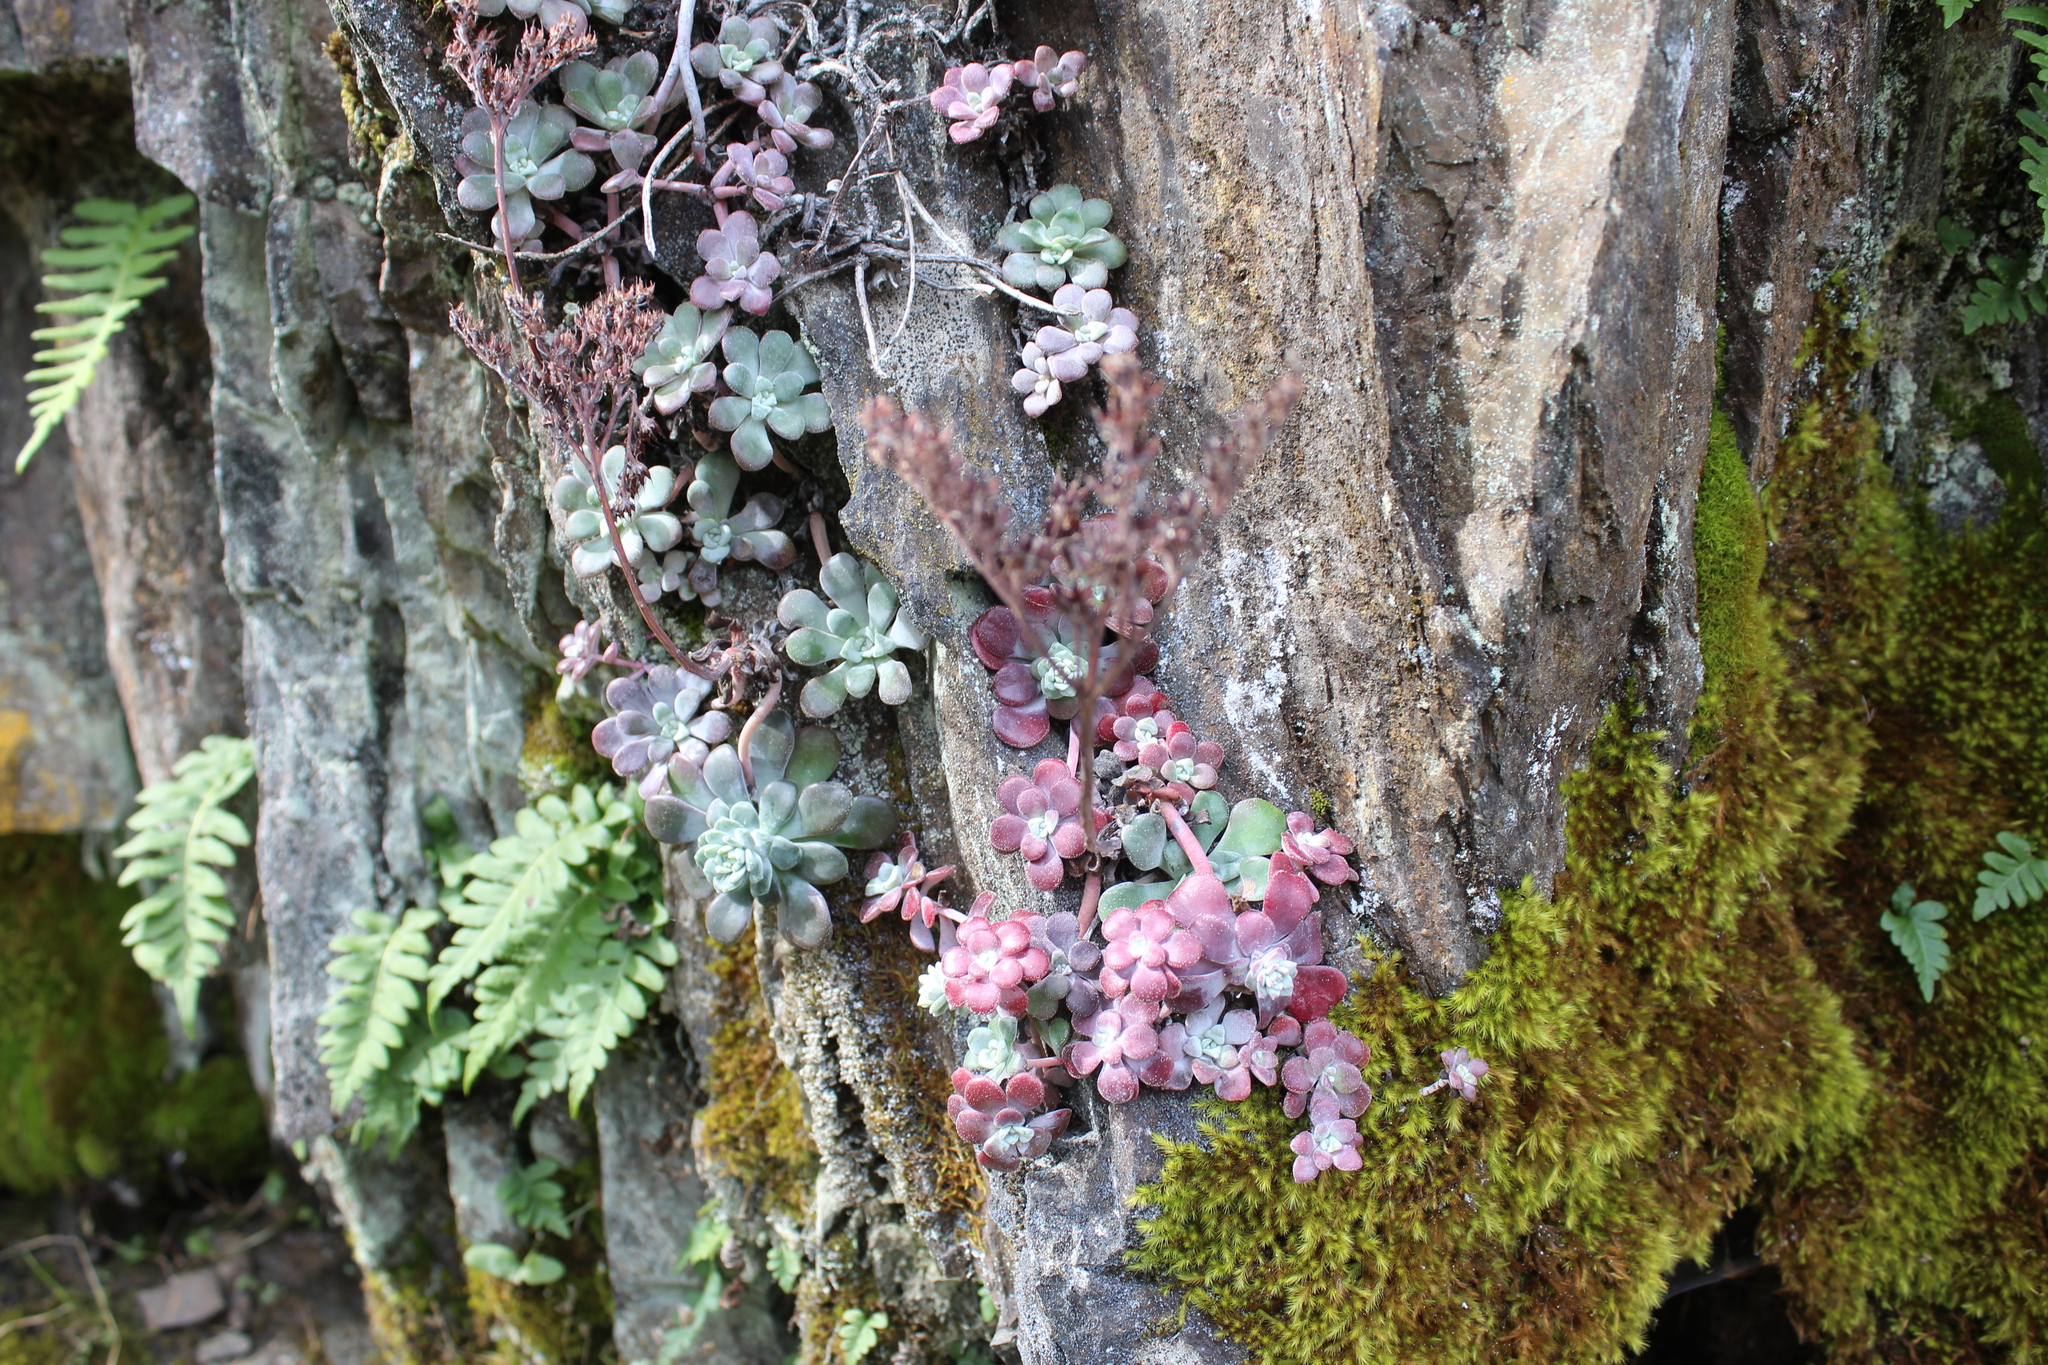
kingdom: Plantae
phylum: Tracheophyta
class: Magnoliopsida
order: Saxifragales
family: Crassulaceae
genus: Sedum
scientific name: Sedum spathulifolium
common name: Colorado stonecrop
